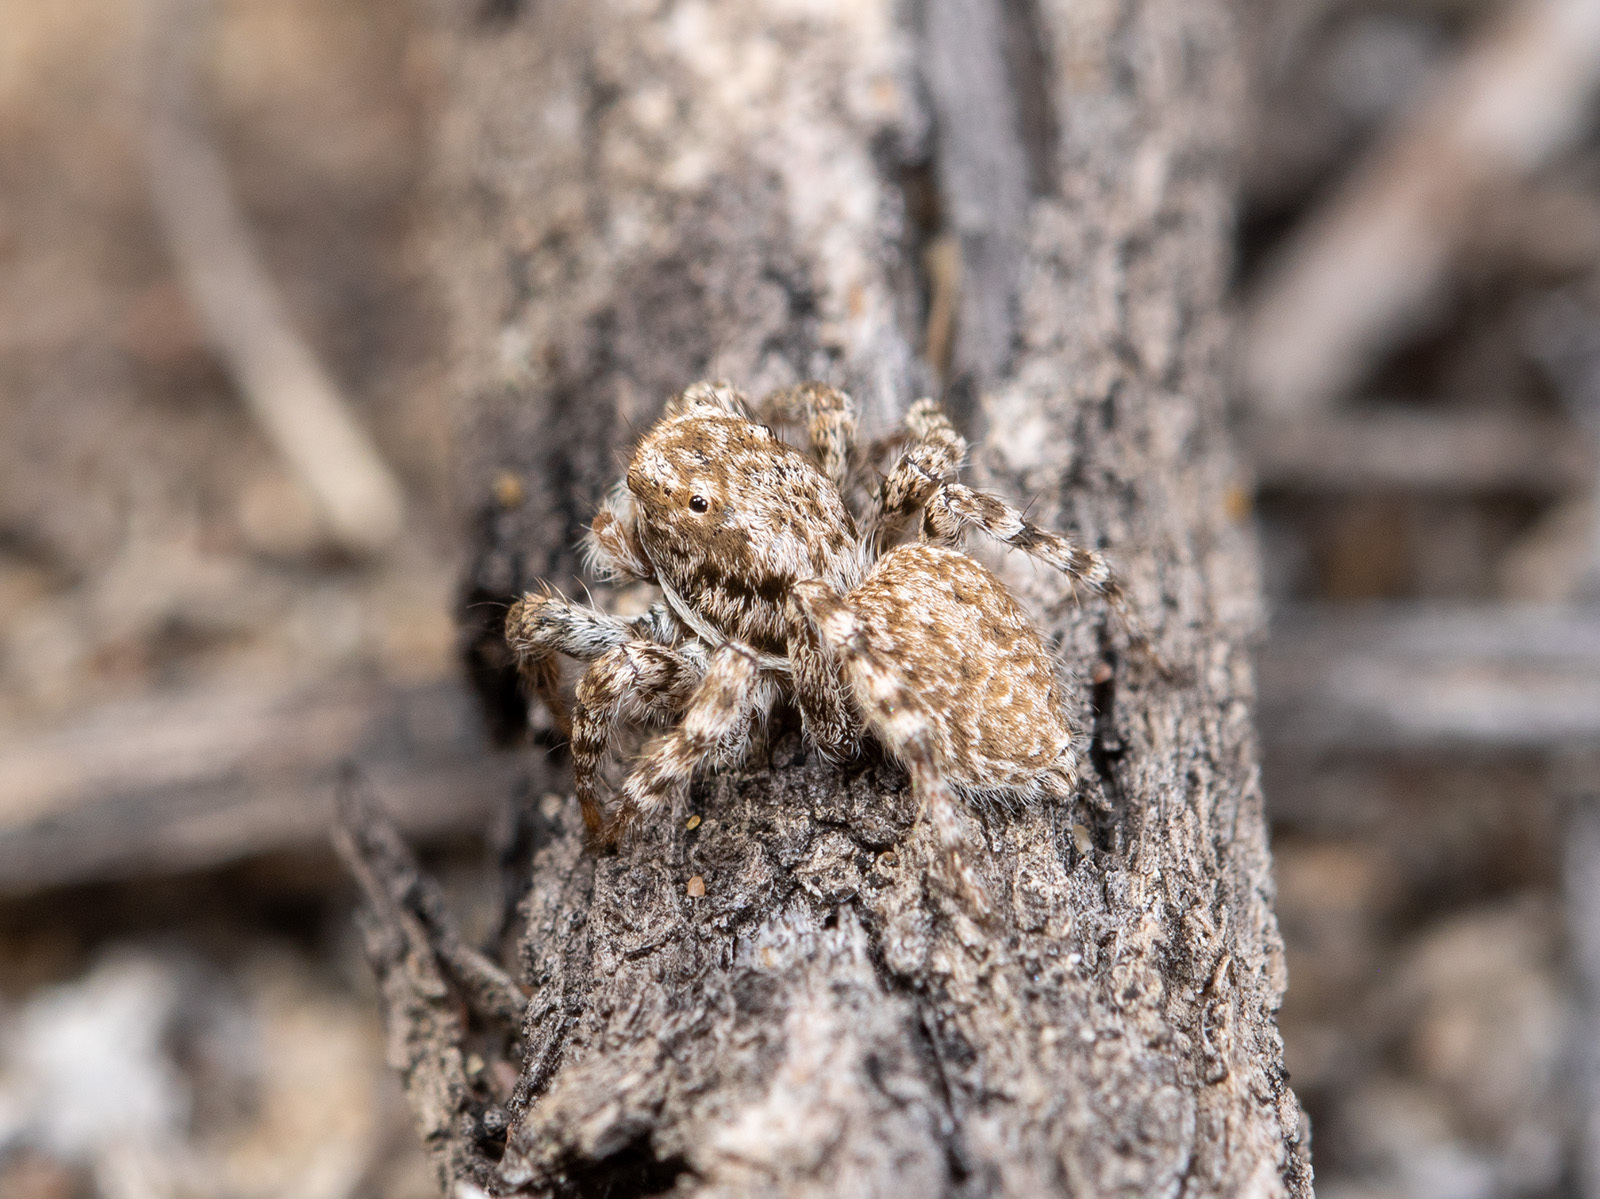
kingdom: Animalia
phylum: Arthropoda
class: Arachnida
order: Araneae
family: Salticidae
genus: Aelurillus
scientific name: Aelurillus andreevae
